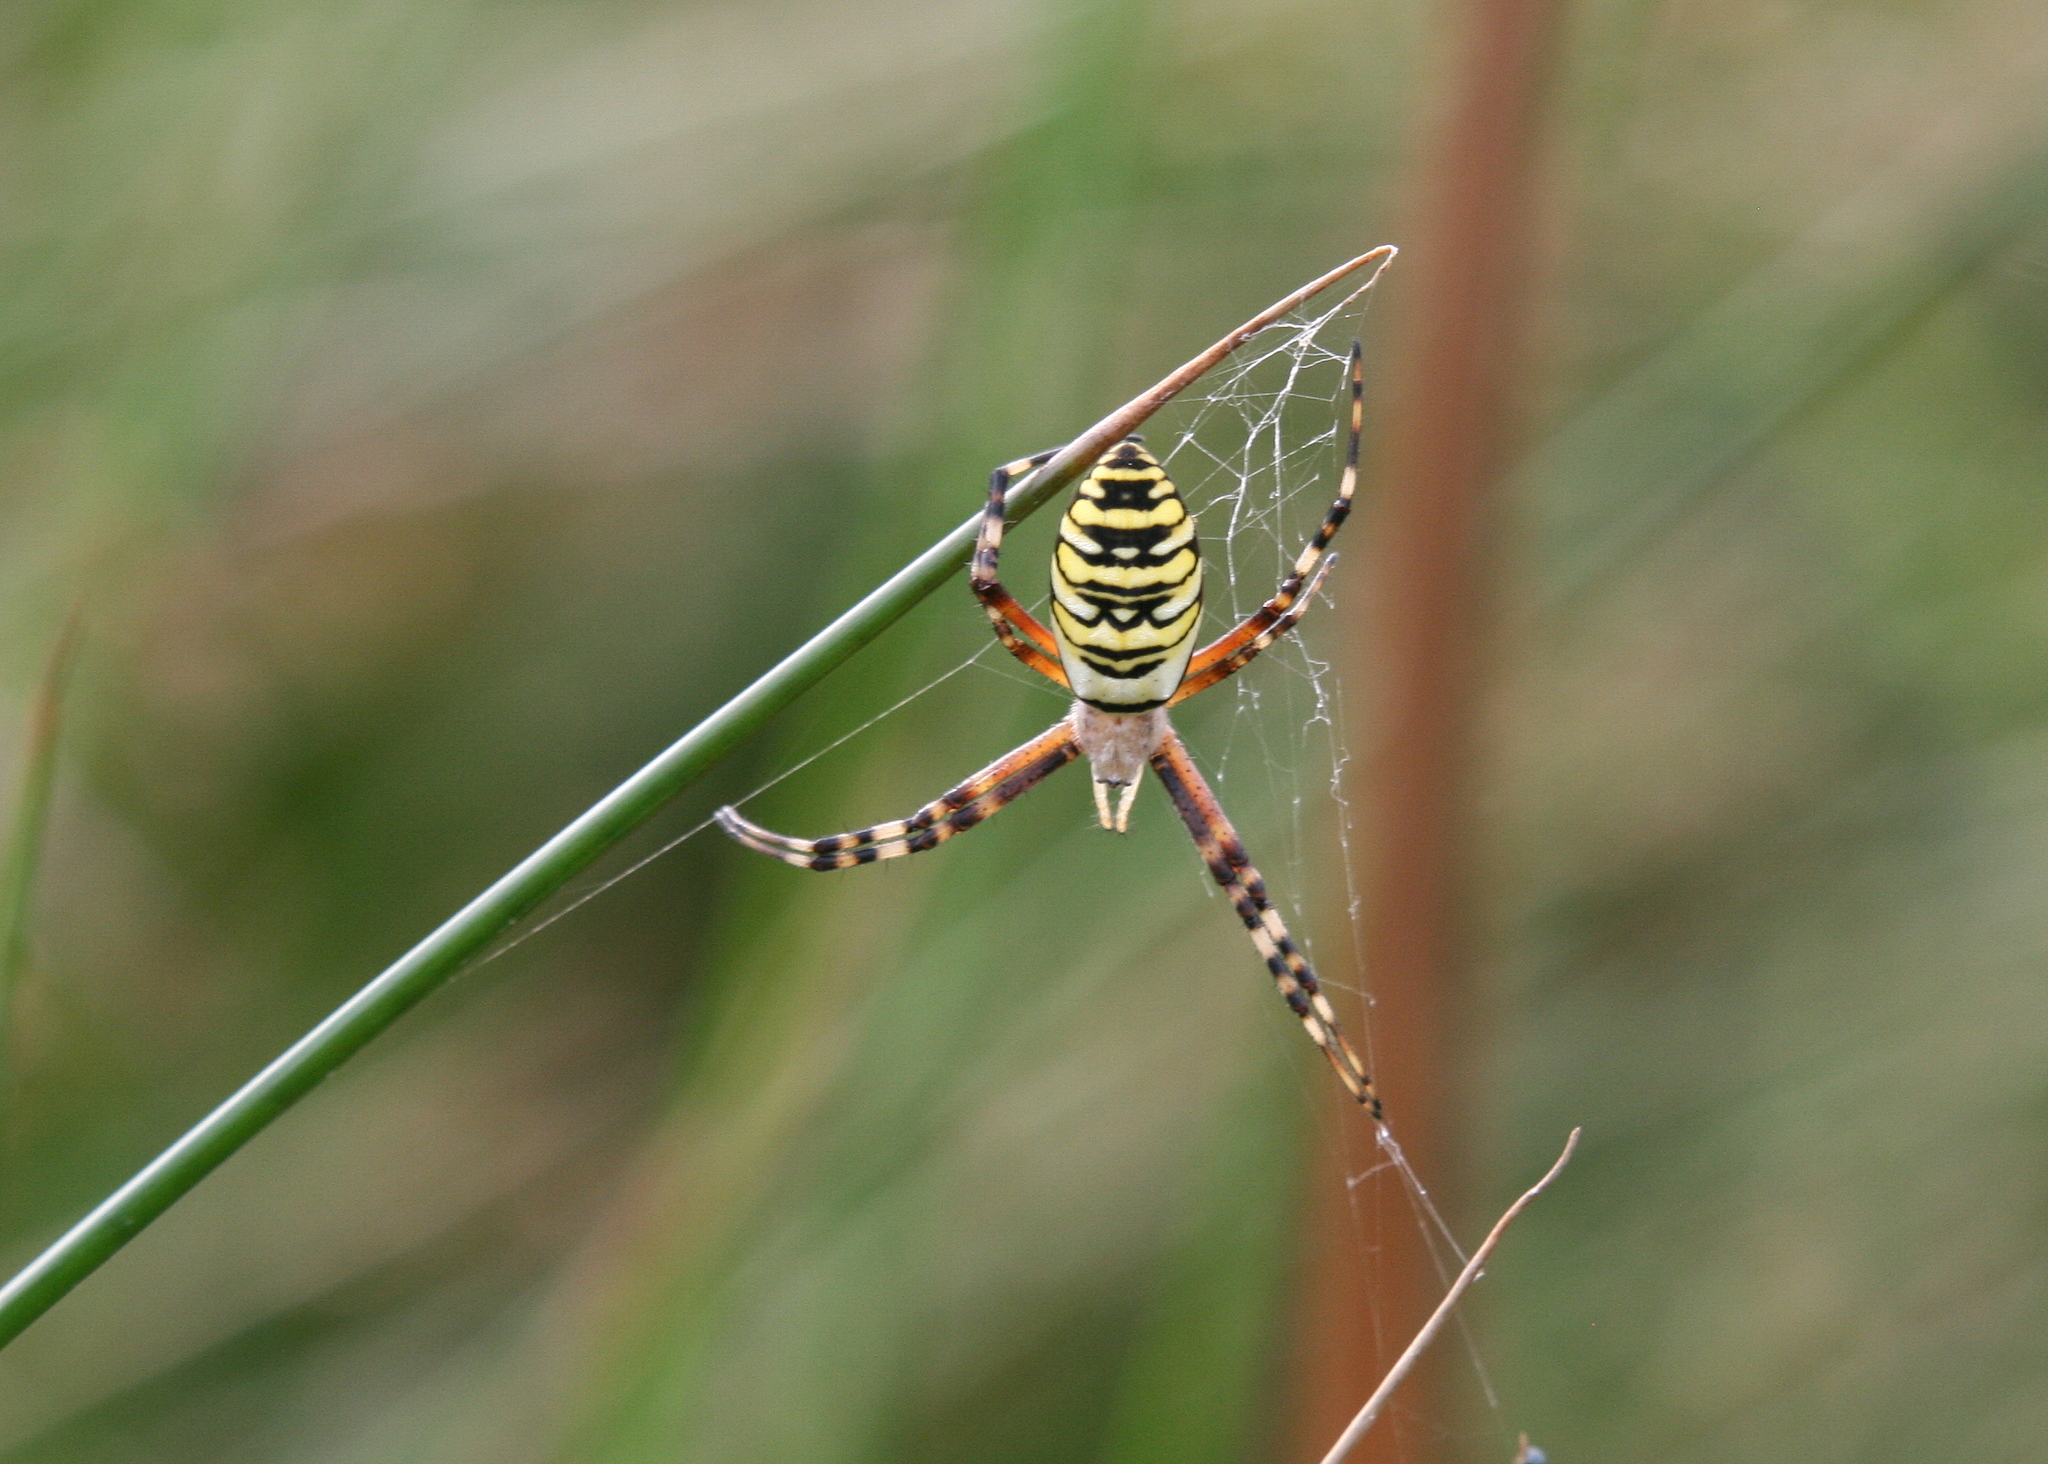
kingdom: Animalia
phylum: Arthropoda
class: Arachnida
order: Araneae
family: Araneidae
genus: Argiope
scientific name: Argiope bruennichi
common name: Wasp spider
